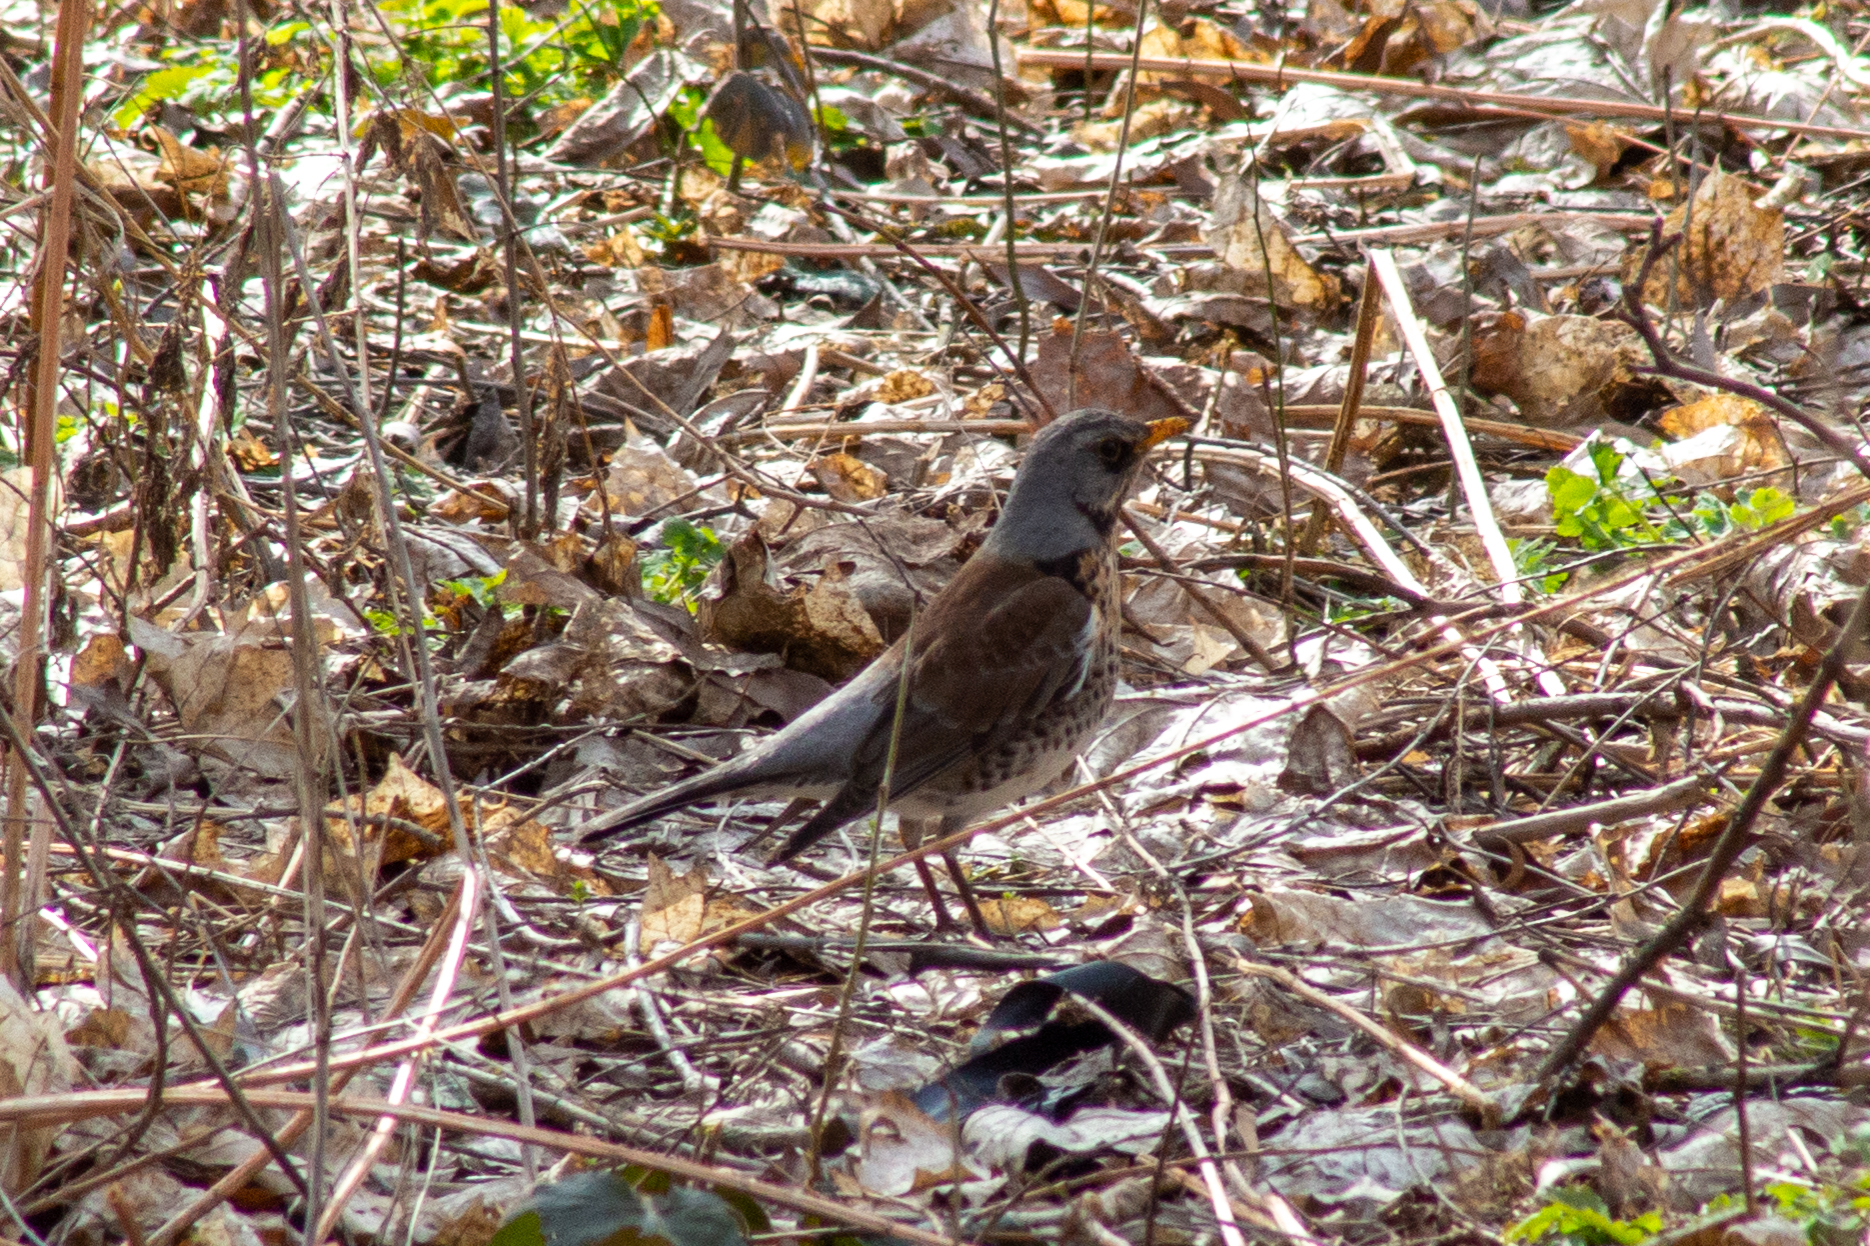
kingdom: Animalia
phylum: Chordata
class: Aves
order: Passeriformes
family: Turdidae
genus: Turdus
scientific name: Turdus pilaris
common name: Fieldfare
